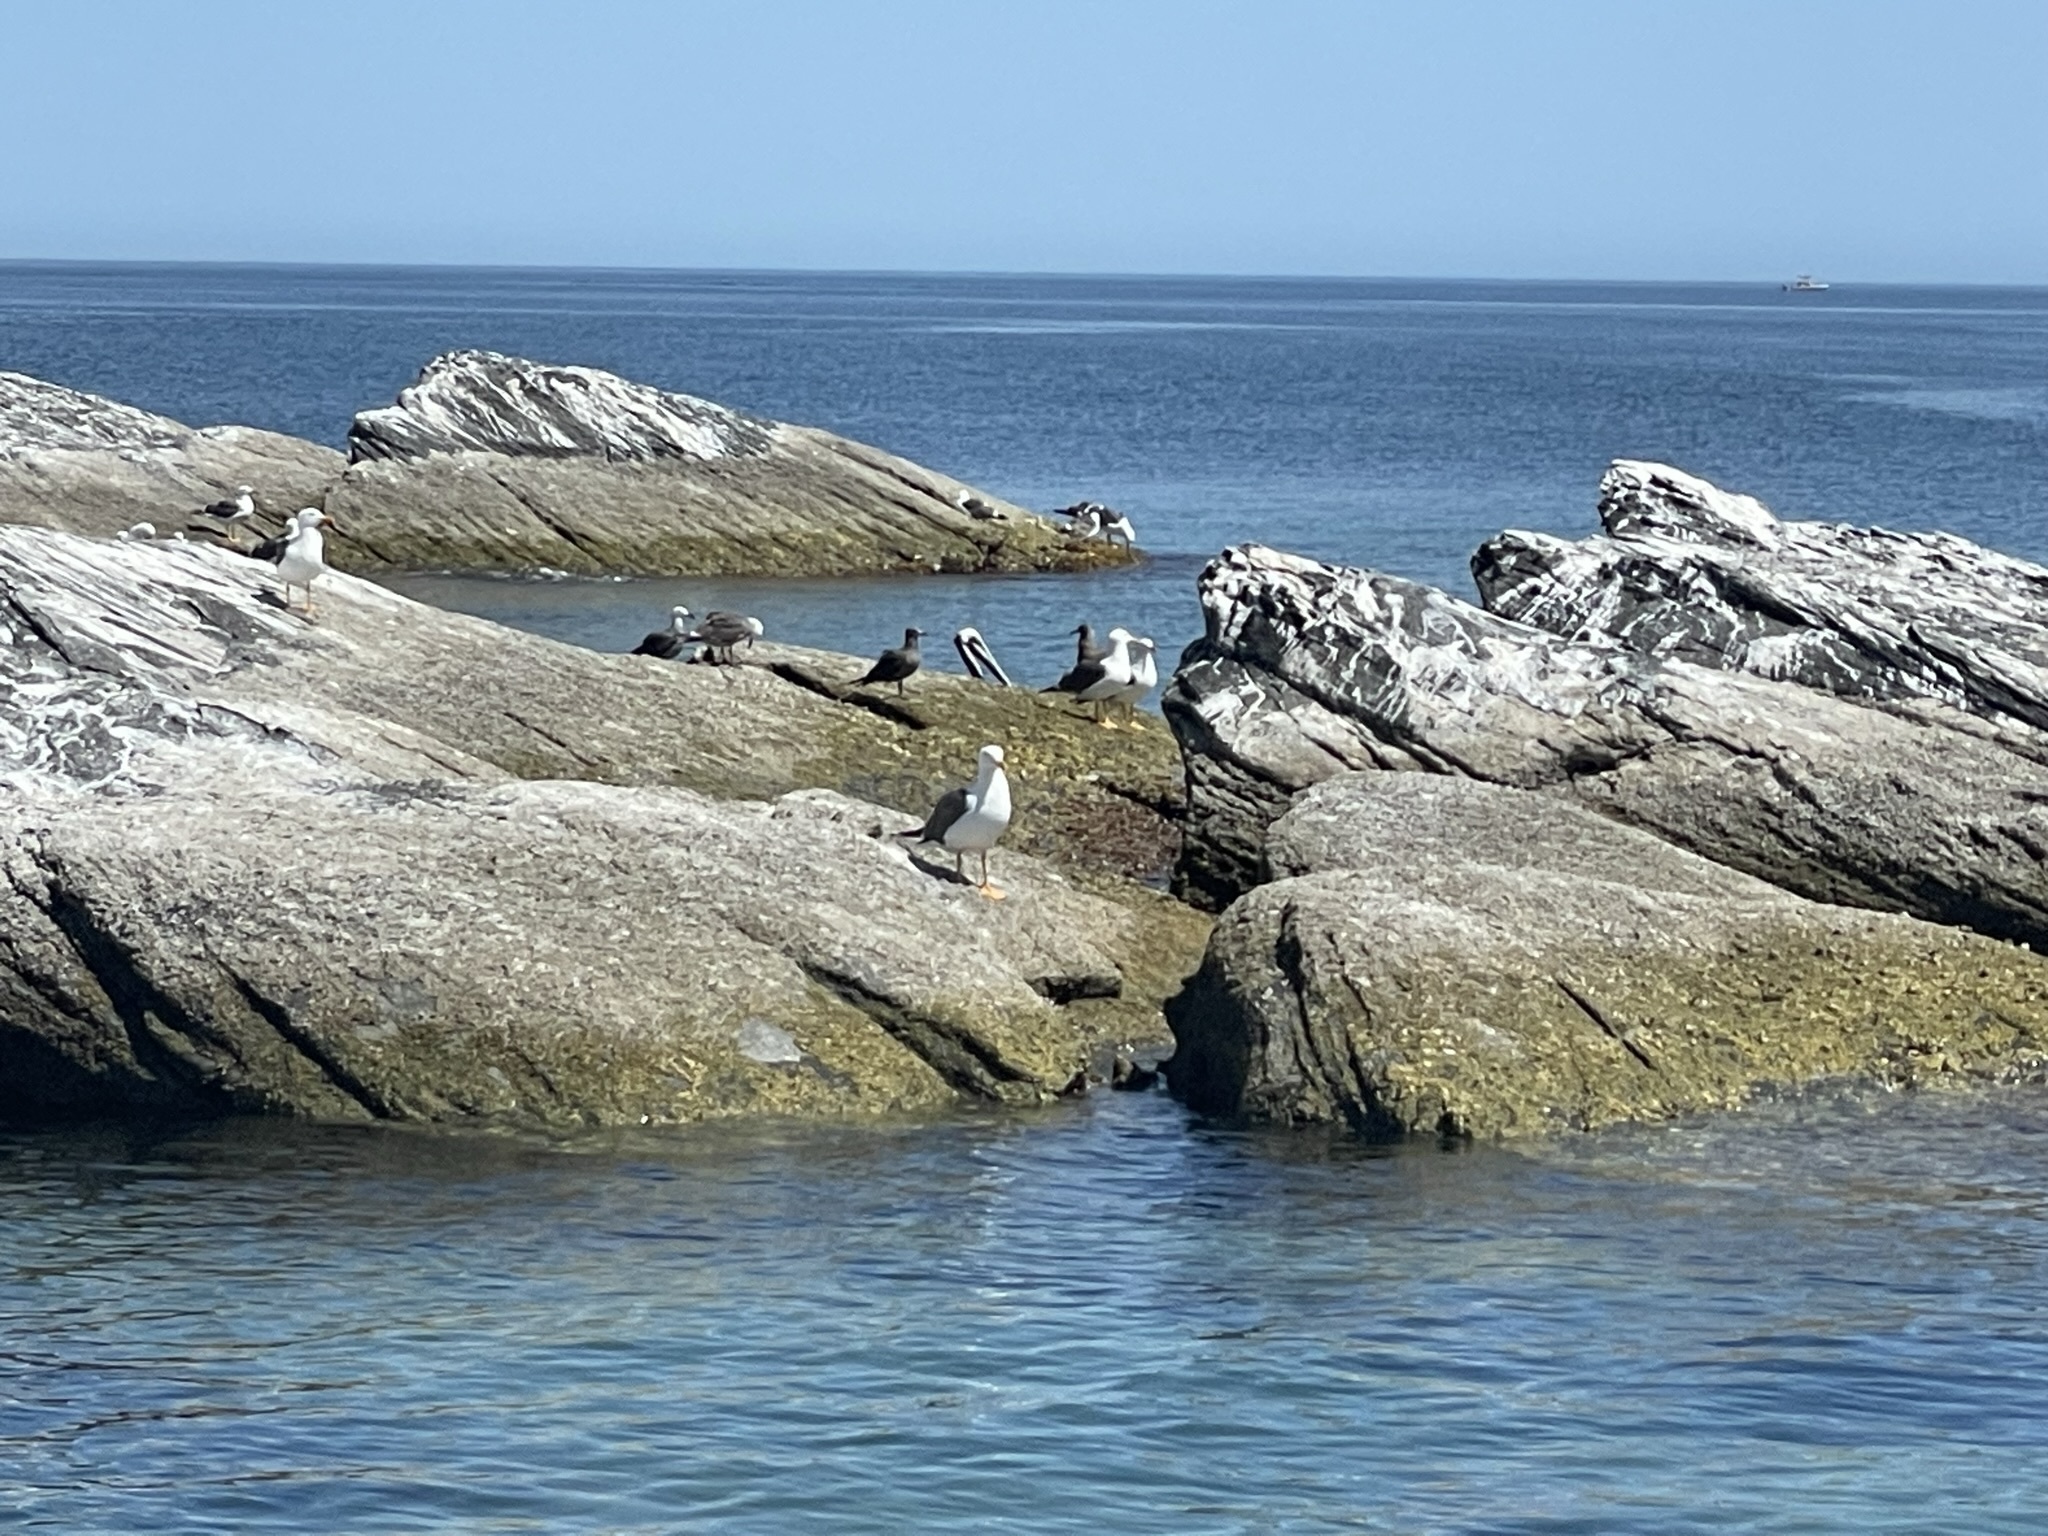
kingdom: Animalia
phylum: Chordata
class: Aves
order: Charadriiformes
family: Laridae
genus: Larus
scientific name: Larus heermanni
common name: Heermann's gull
